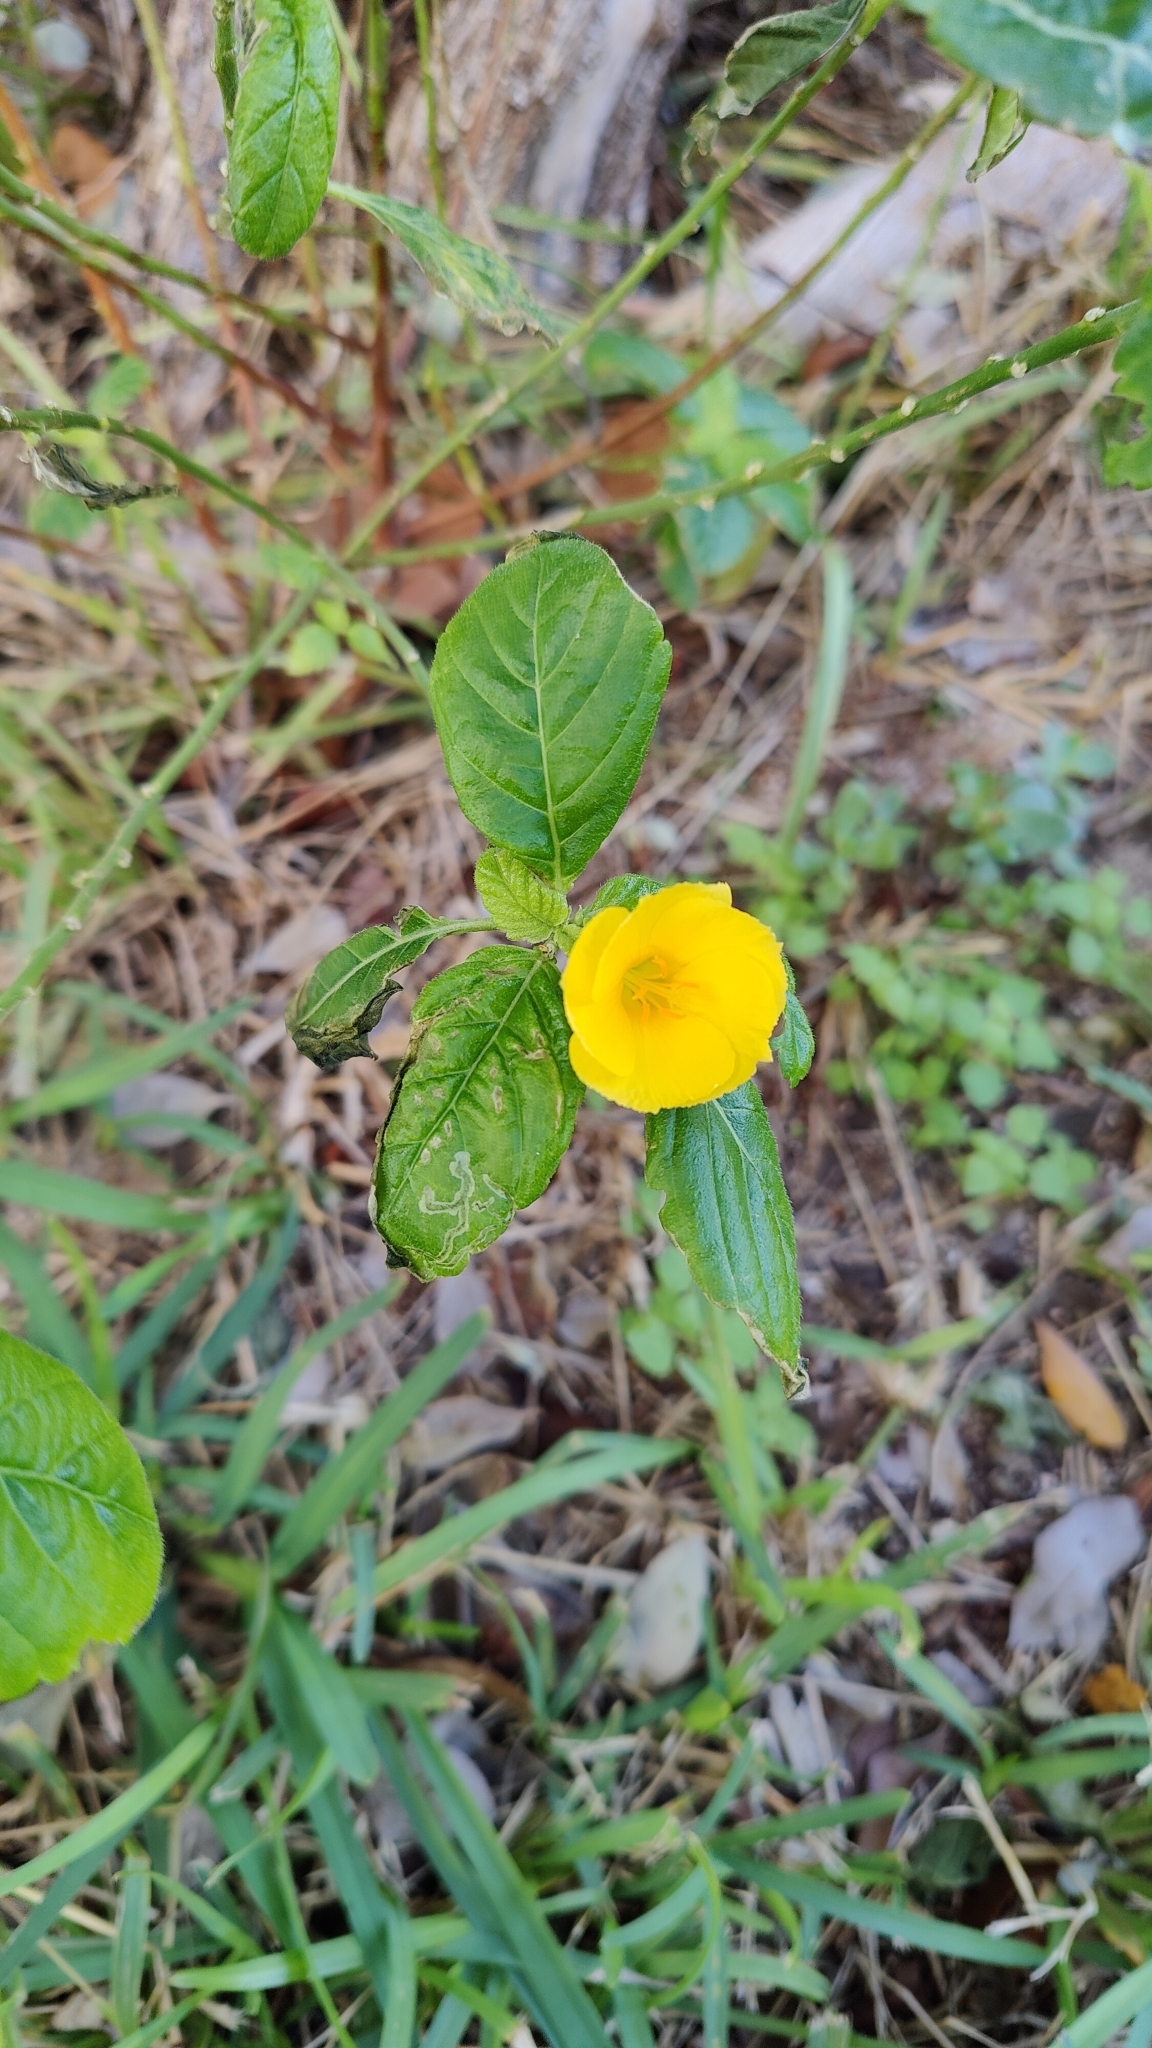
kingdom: Plantae
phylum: Tracheophyta
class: Magnoliopsida
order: Malpighiales
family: Turneraceae
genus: Turnera
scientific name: Turnera ulmifolia
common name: Ramgoat dashalong
